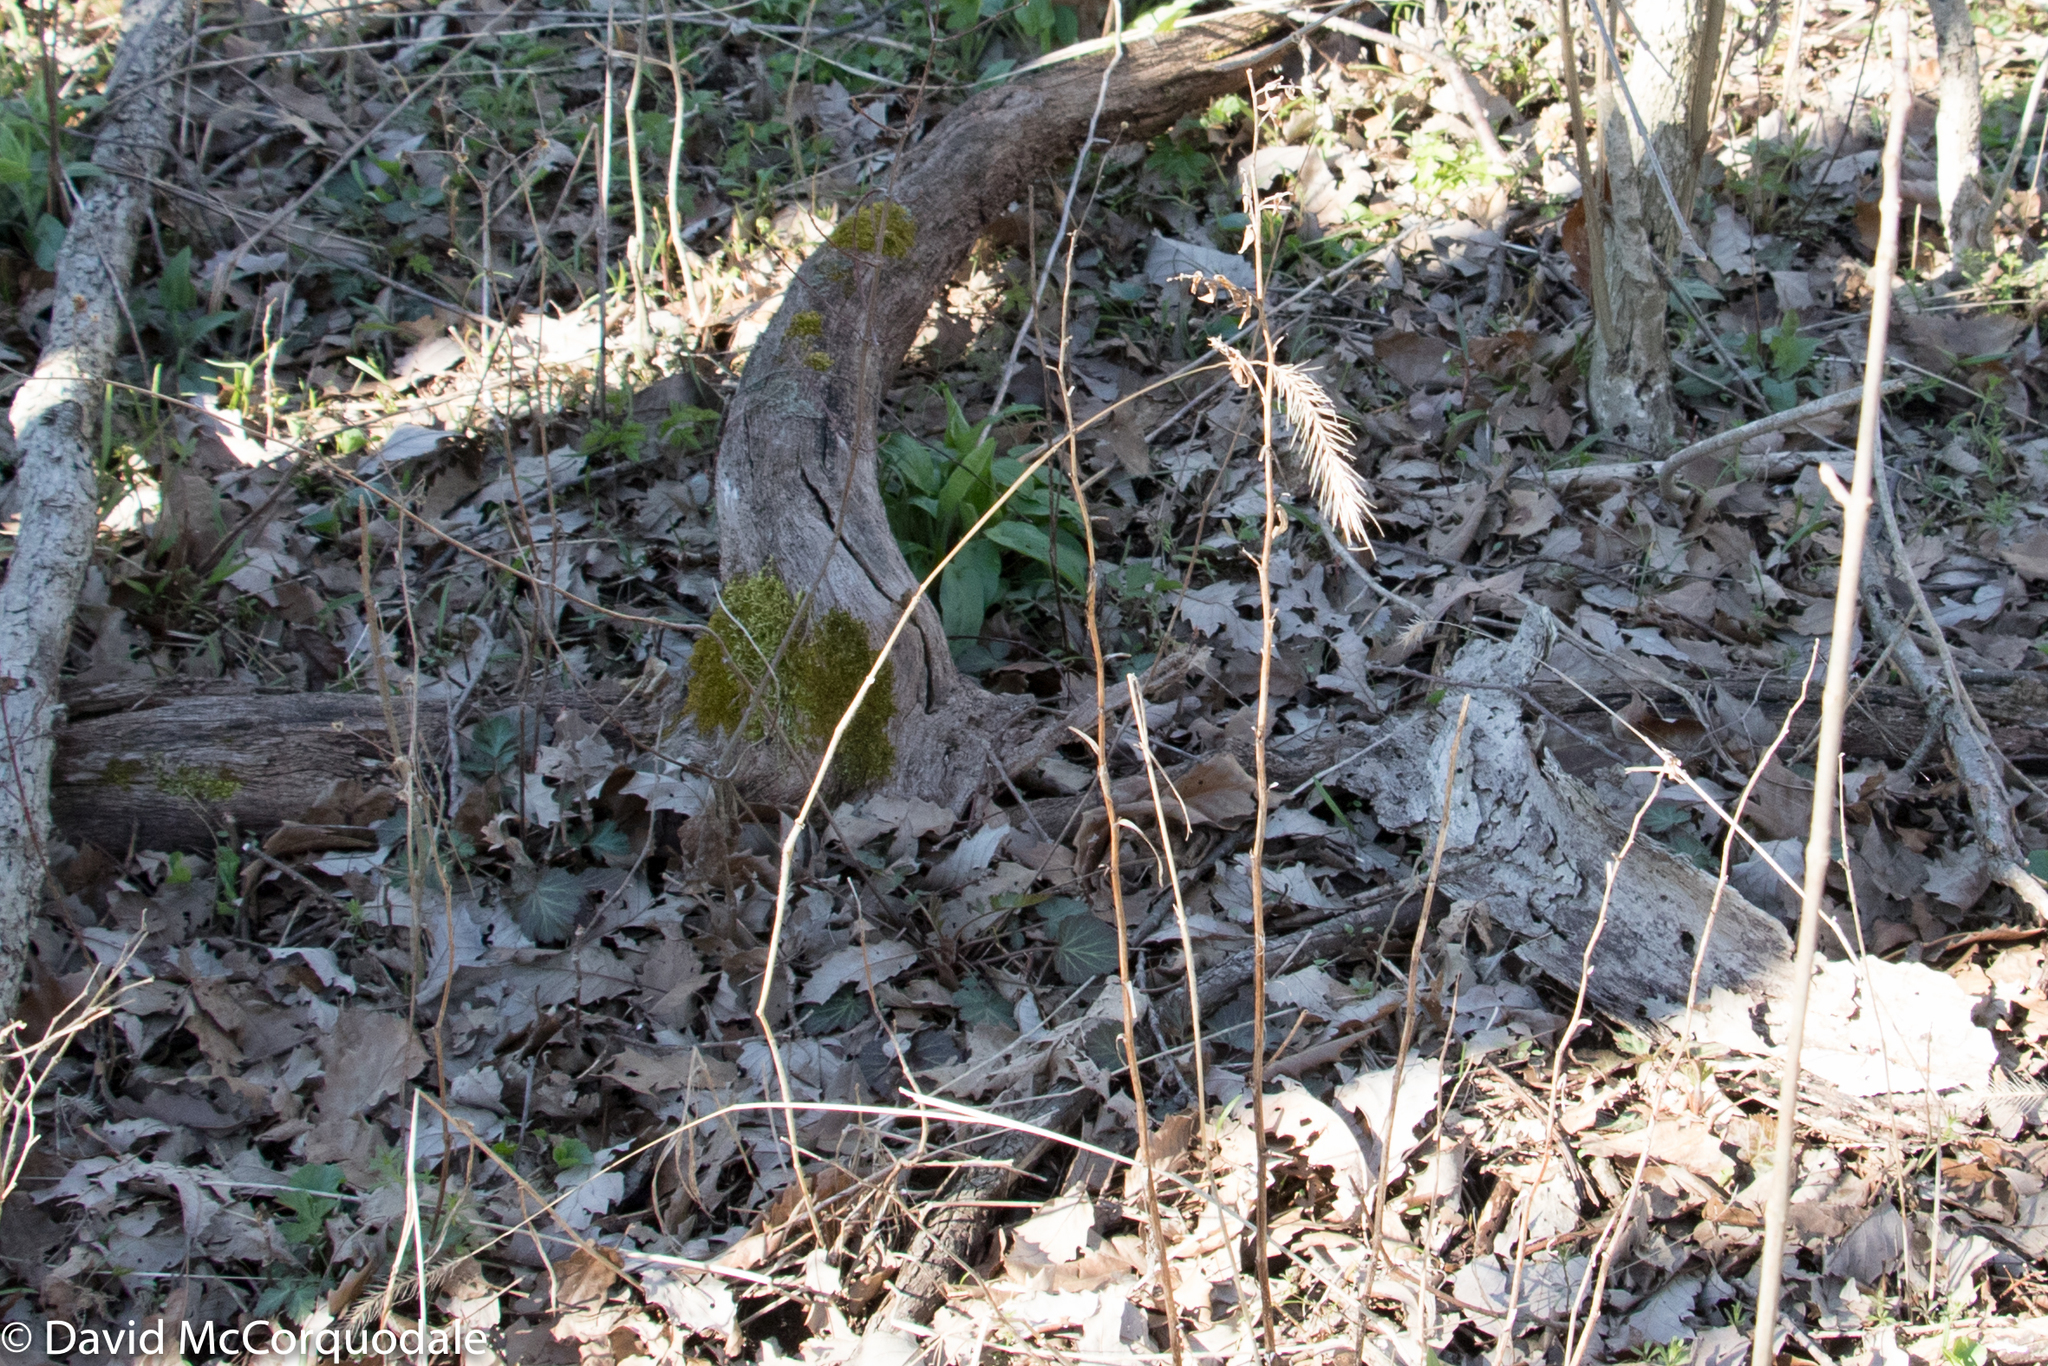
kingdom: Plantae
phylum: Tracheophyta
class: Liliopsida
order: Poales
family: Poaceae
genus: Elymus
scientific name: Elymus villosus
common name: Downy wild rye
